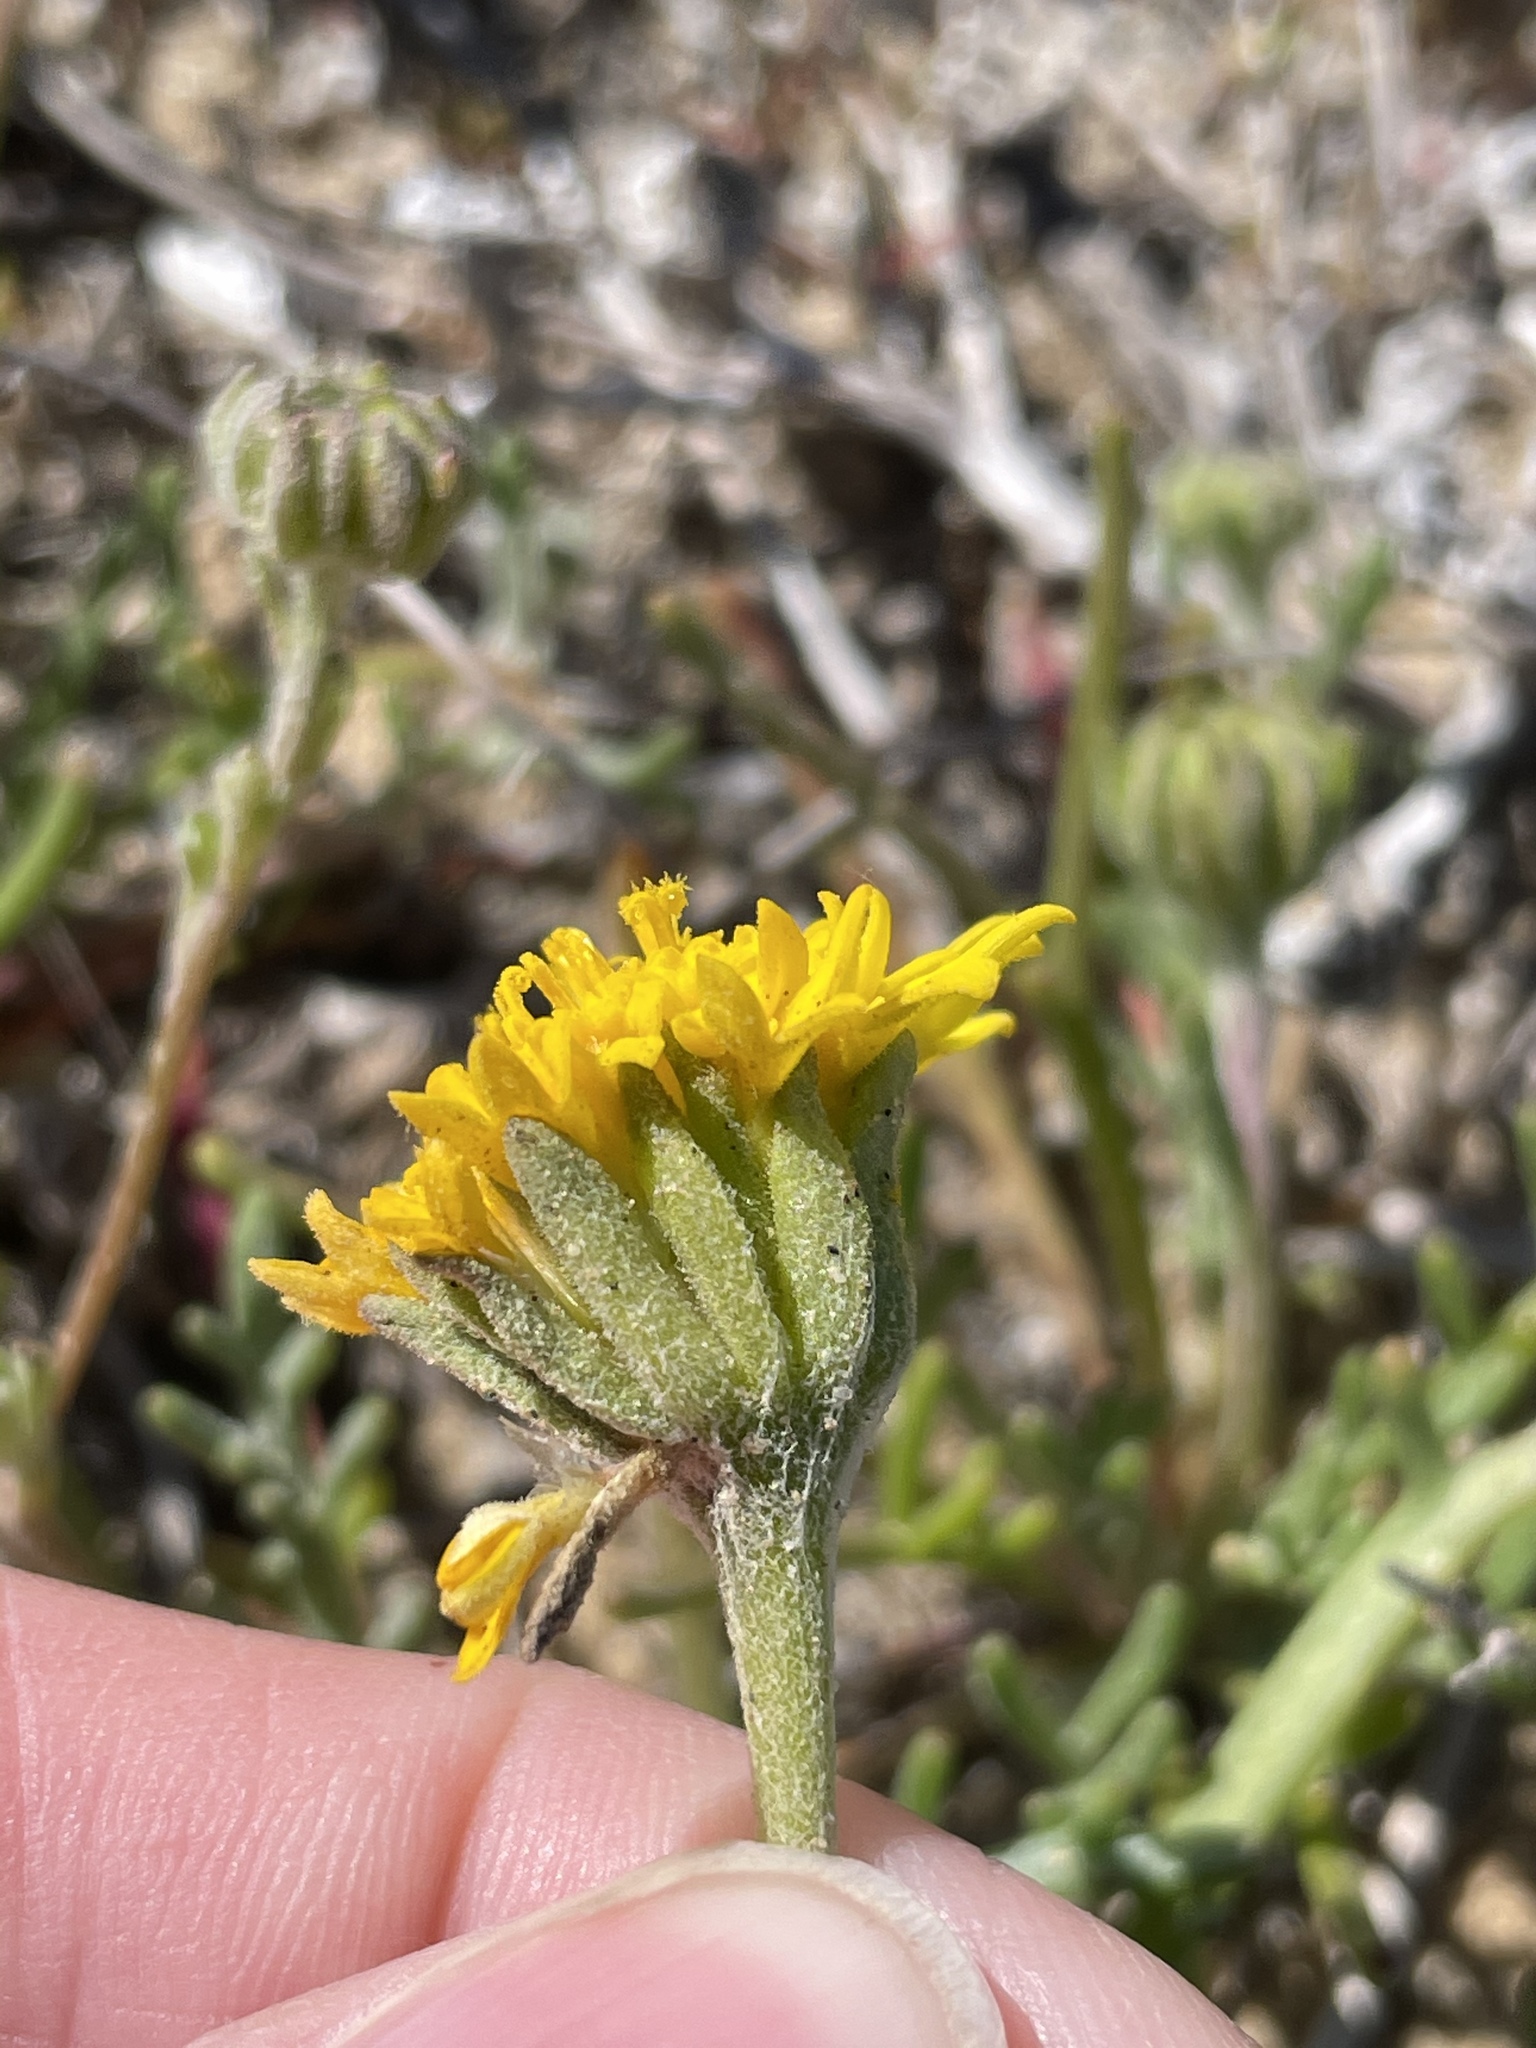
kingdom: Plantae
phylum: Tracheophyta
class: Magnoliopsida
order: Asterales
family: Asteraceae
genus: Chaenactis
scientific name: Chaenactis glabriuscula
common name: Yellow pincushion
